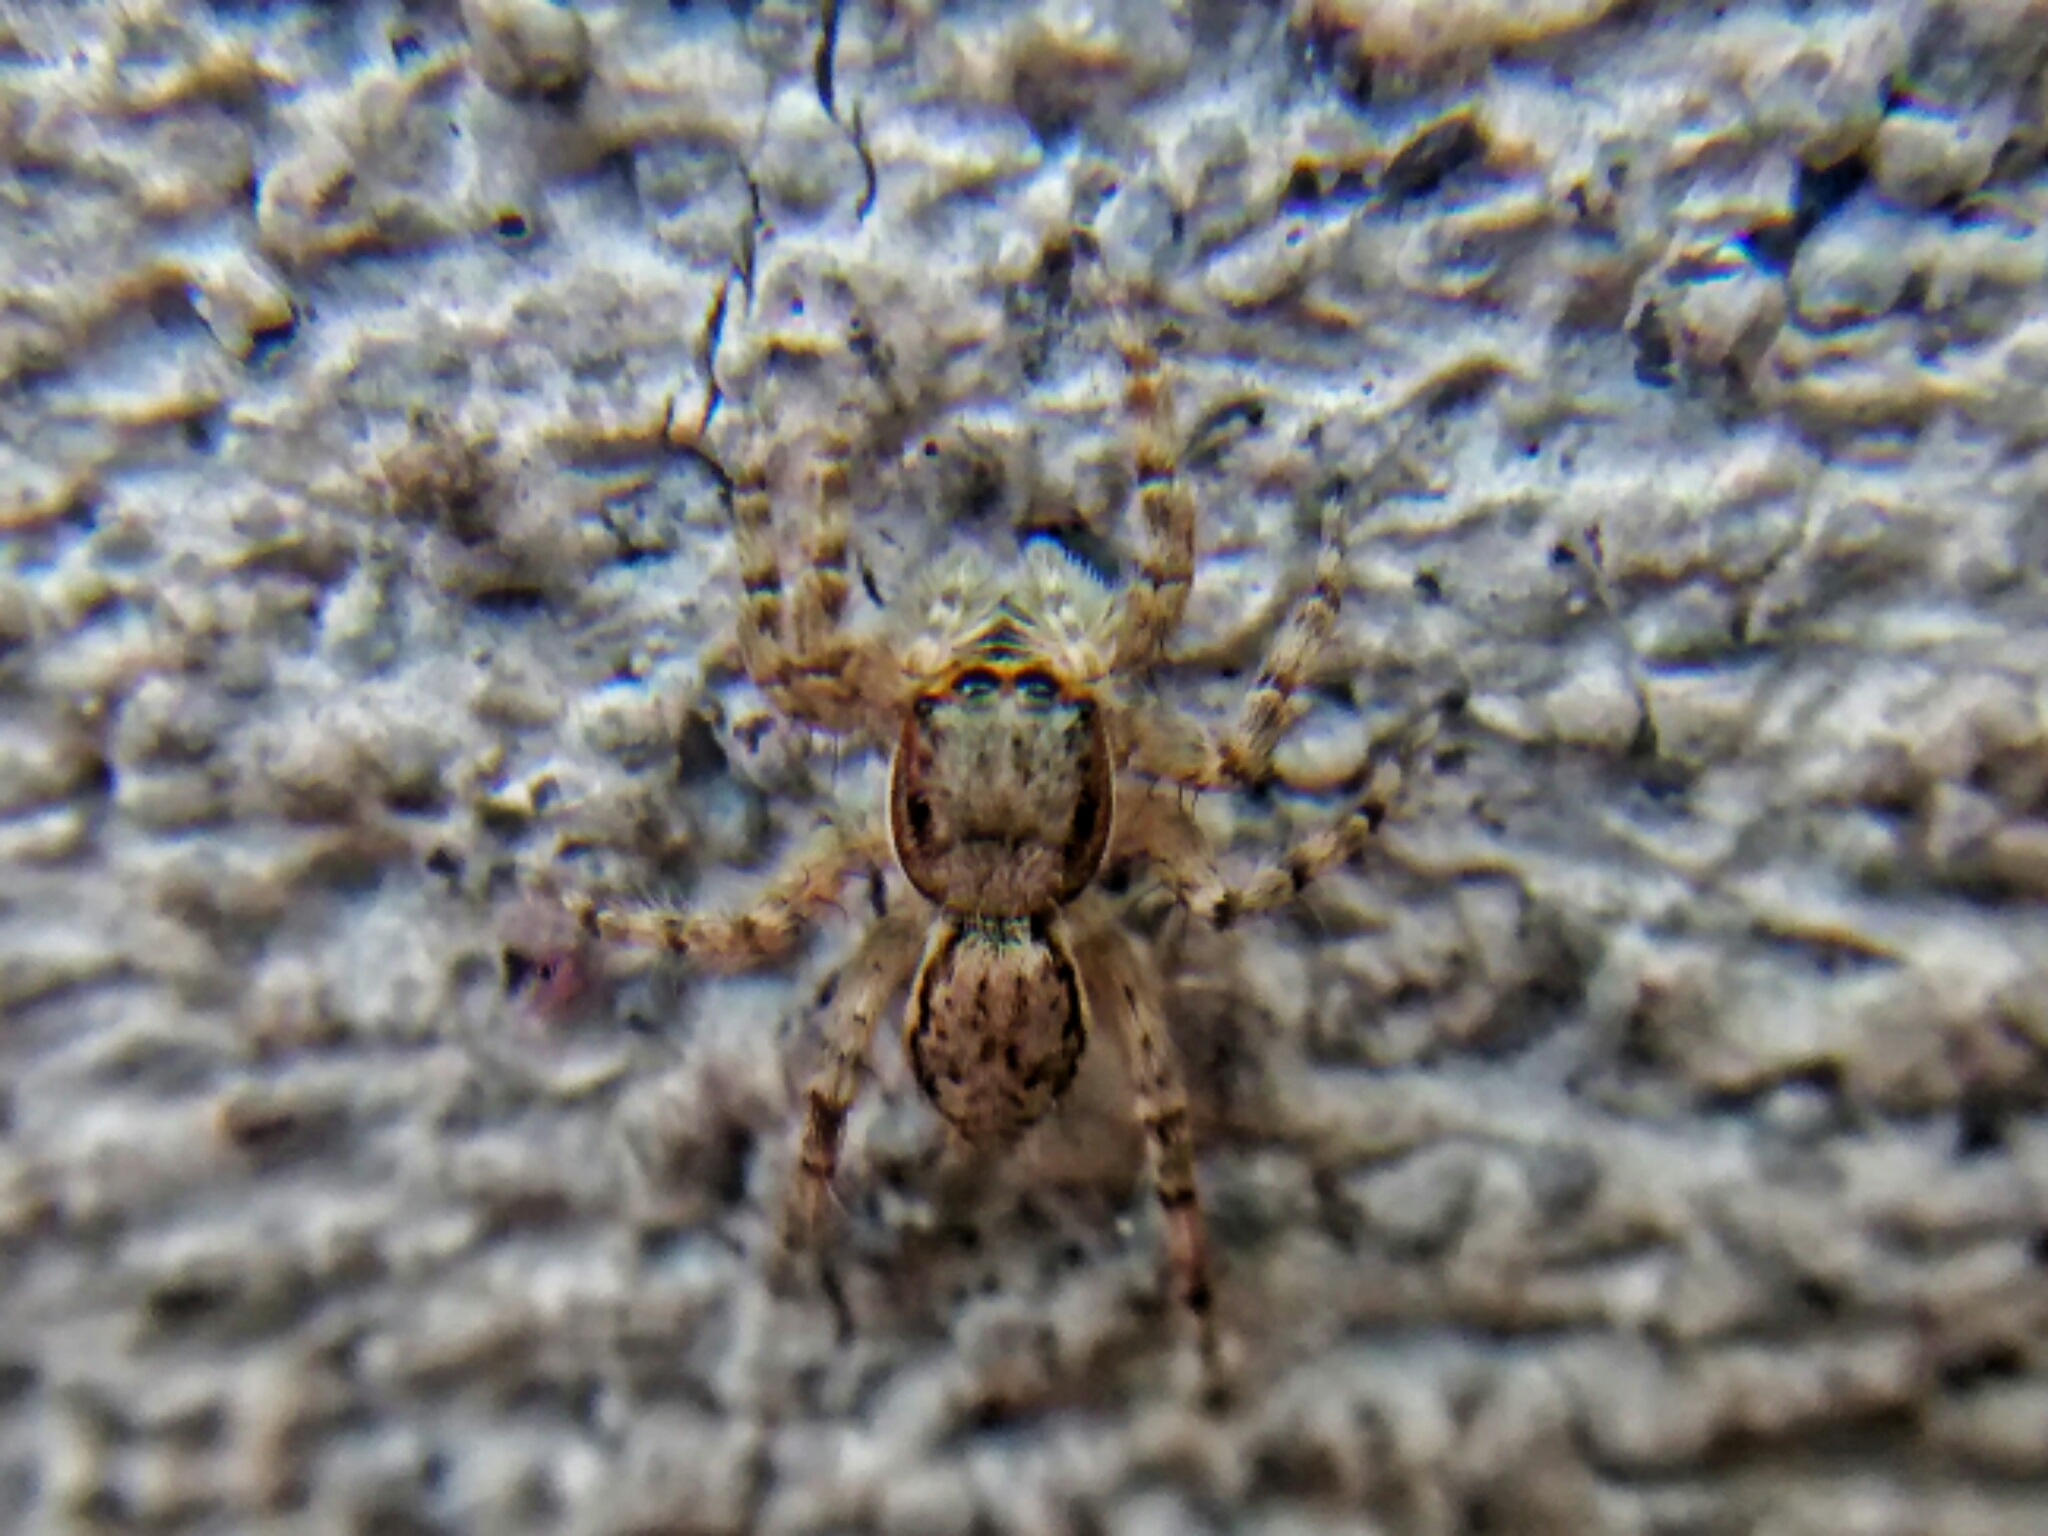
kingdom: Animalia
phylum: Arthropoda
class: Arachnida
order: Araneae
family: Salticidae
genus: Menemerus
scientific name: Menemerus bivittatus
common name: Gray wall jumper
